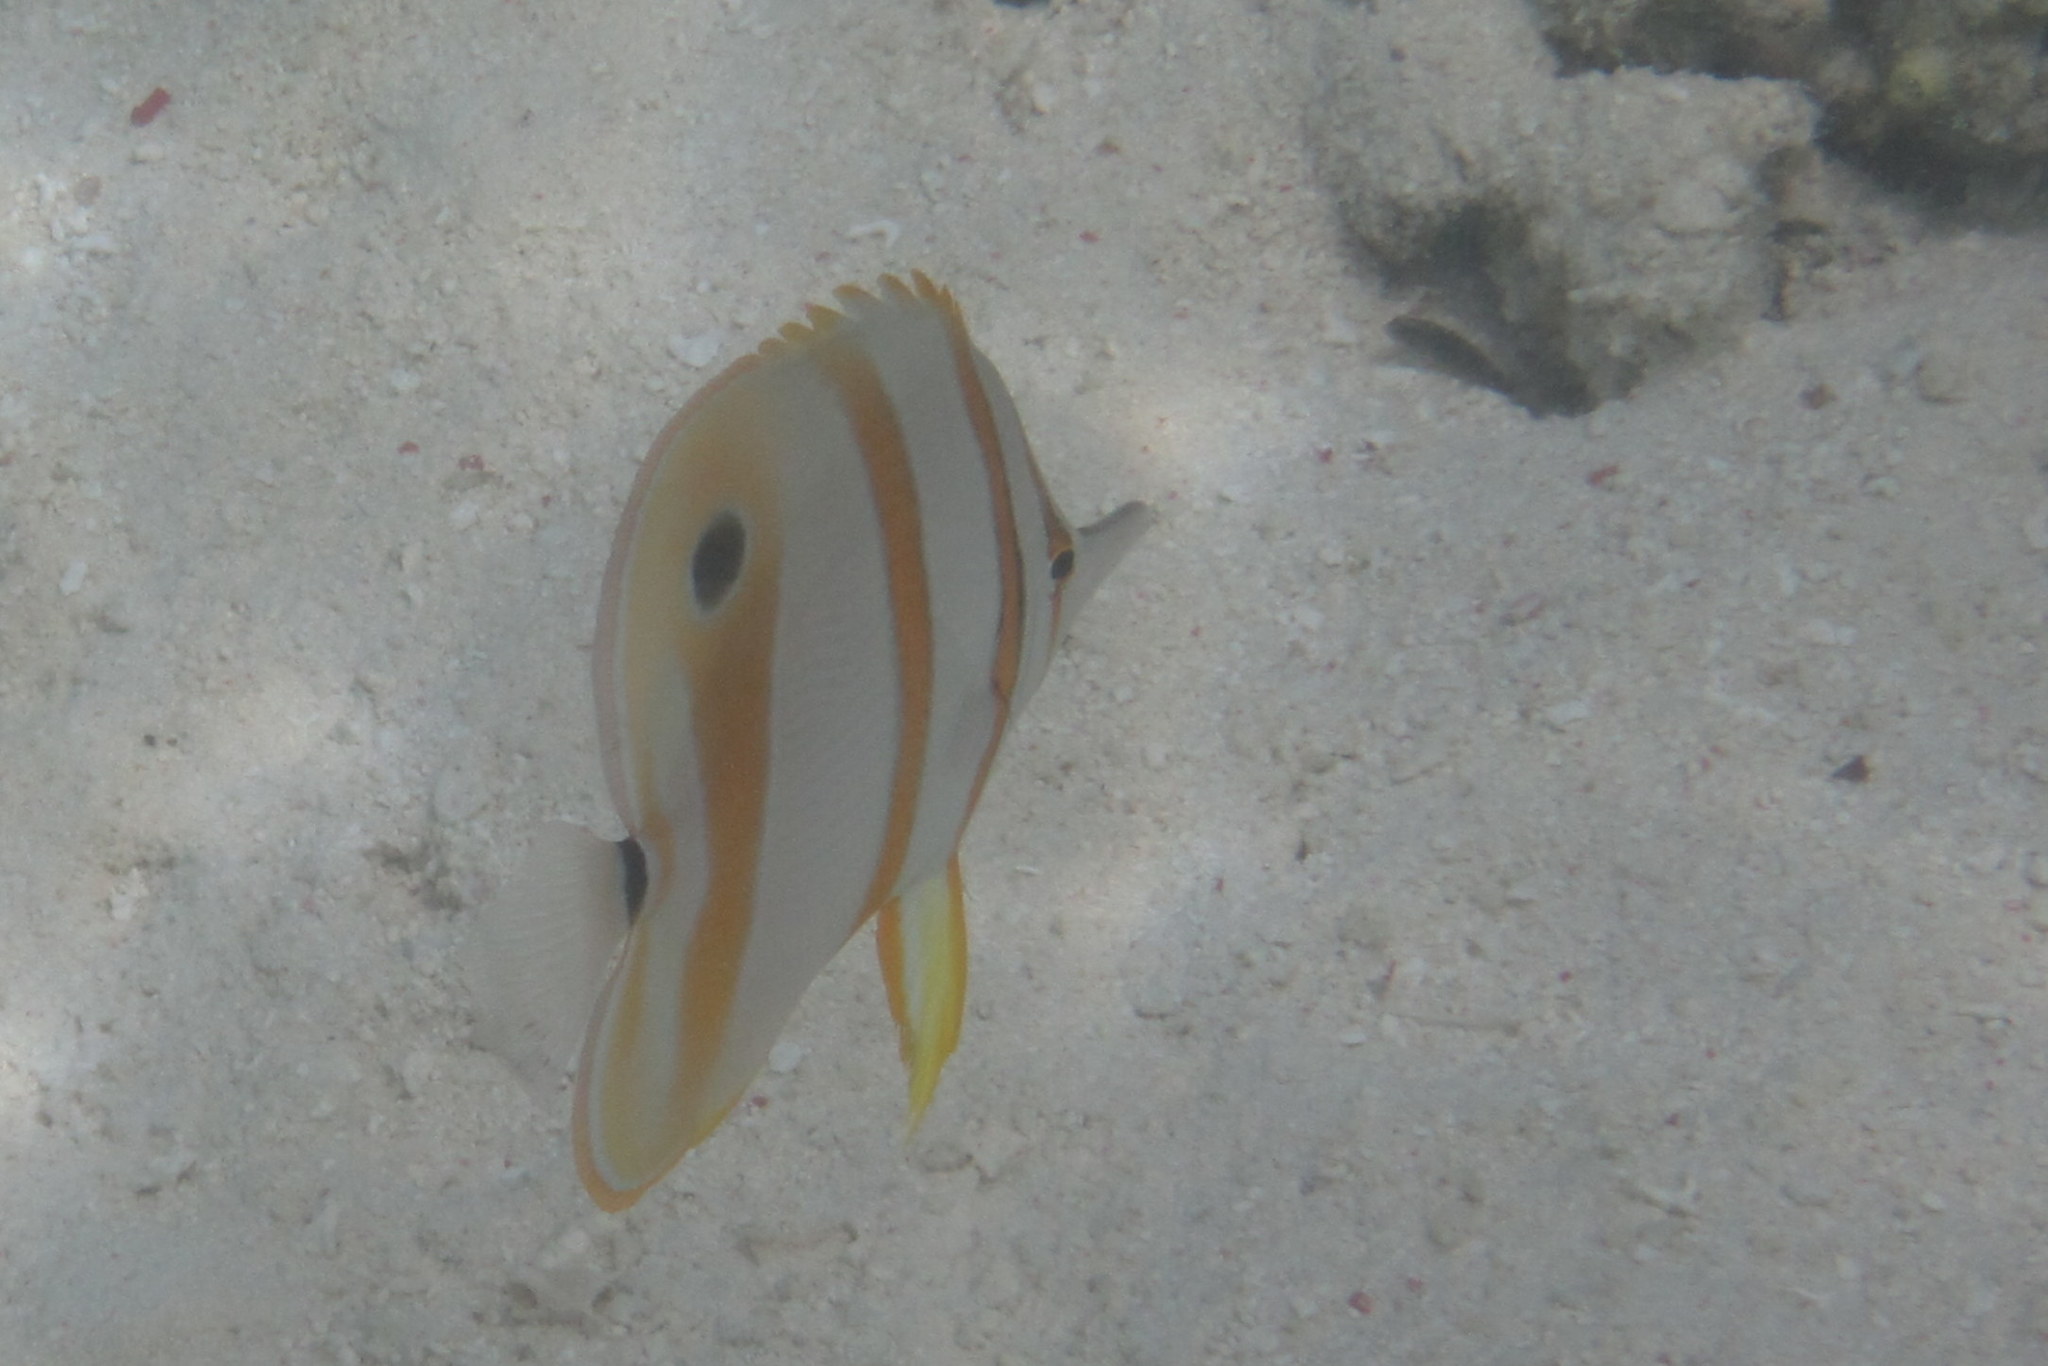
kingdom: Animalia
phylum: Chordata
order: Perciformes
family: Chaetodontidae
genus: Chelmon
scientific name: Chelmon rostratus
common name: Beaked butterflyfish
